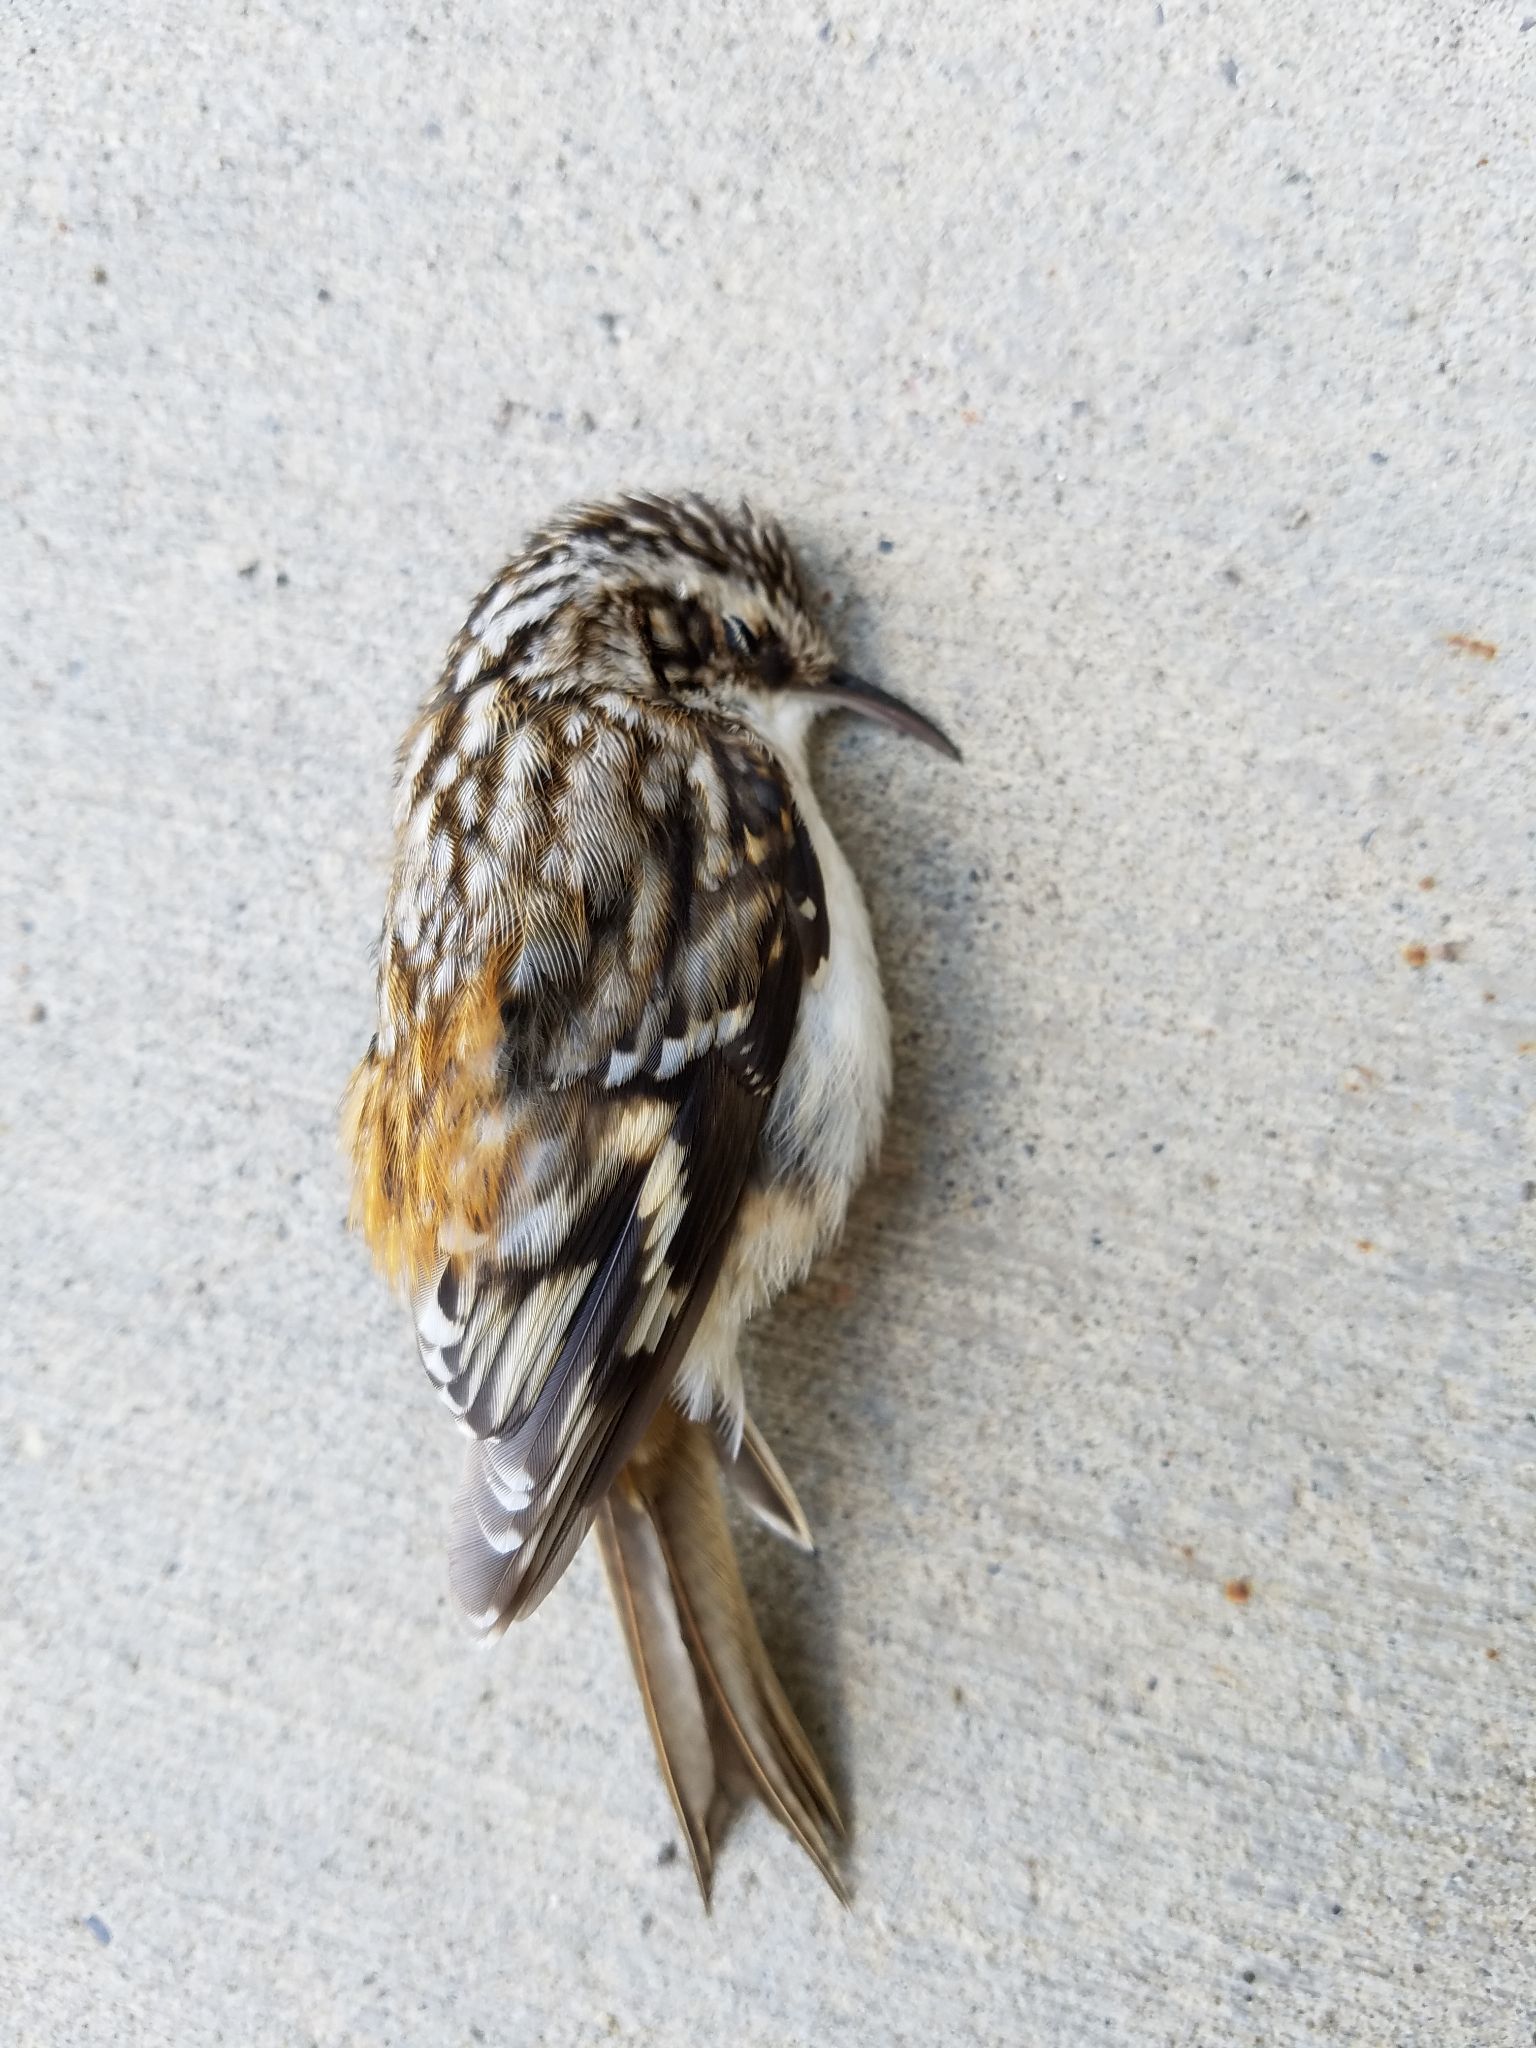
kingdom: Animalia
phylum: Chordata
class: Aves
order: Passeriformes
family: Certhiidae
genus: Certhia
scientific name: Certhia americana
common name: Brown creeper
